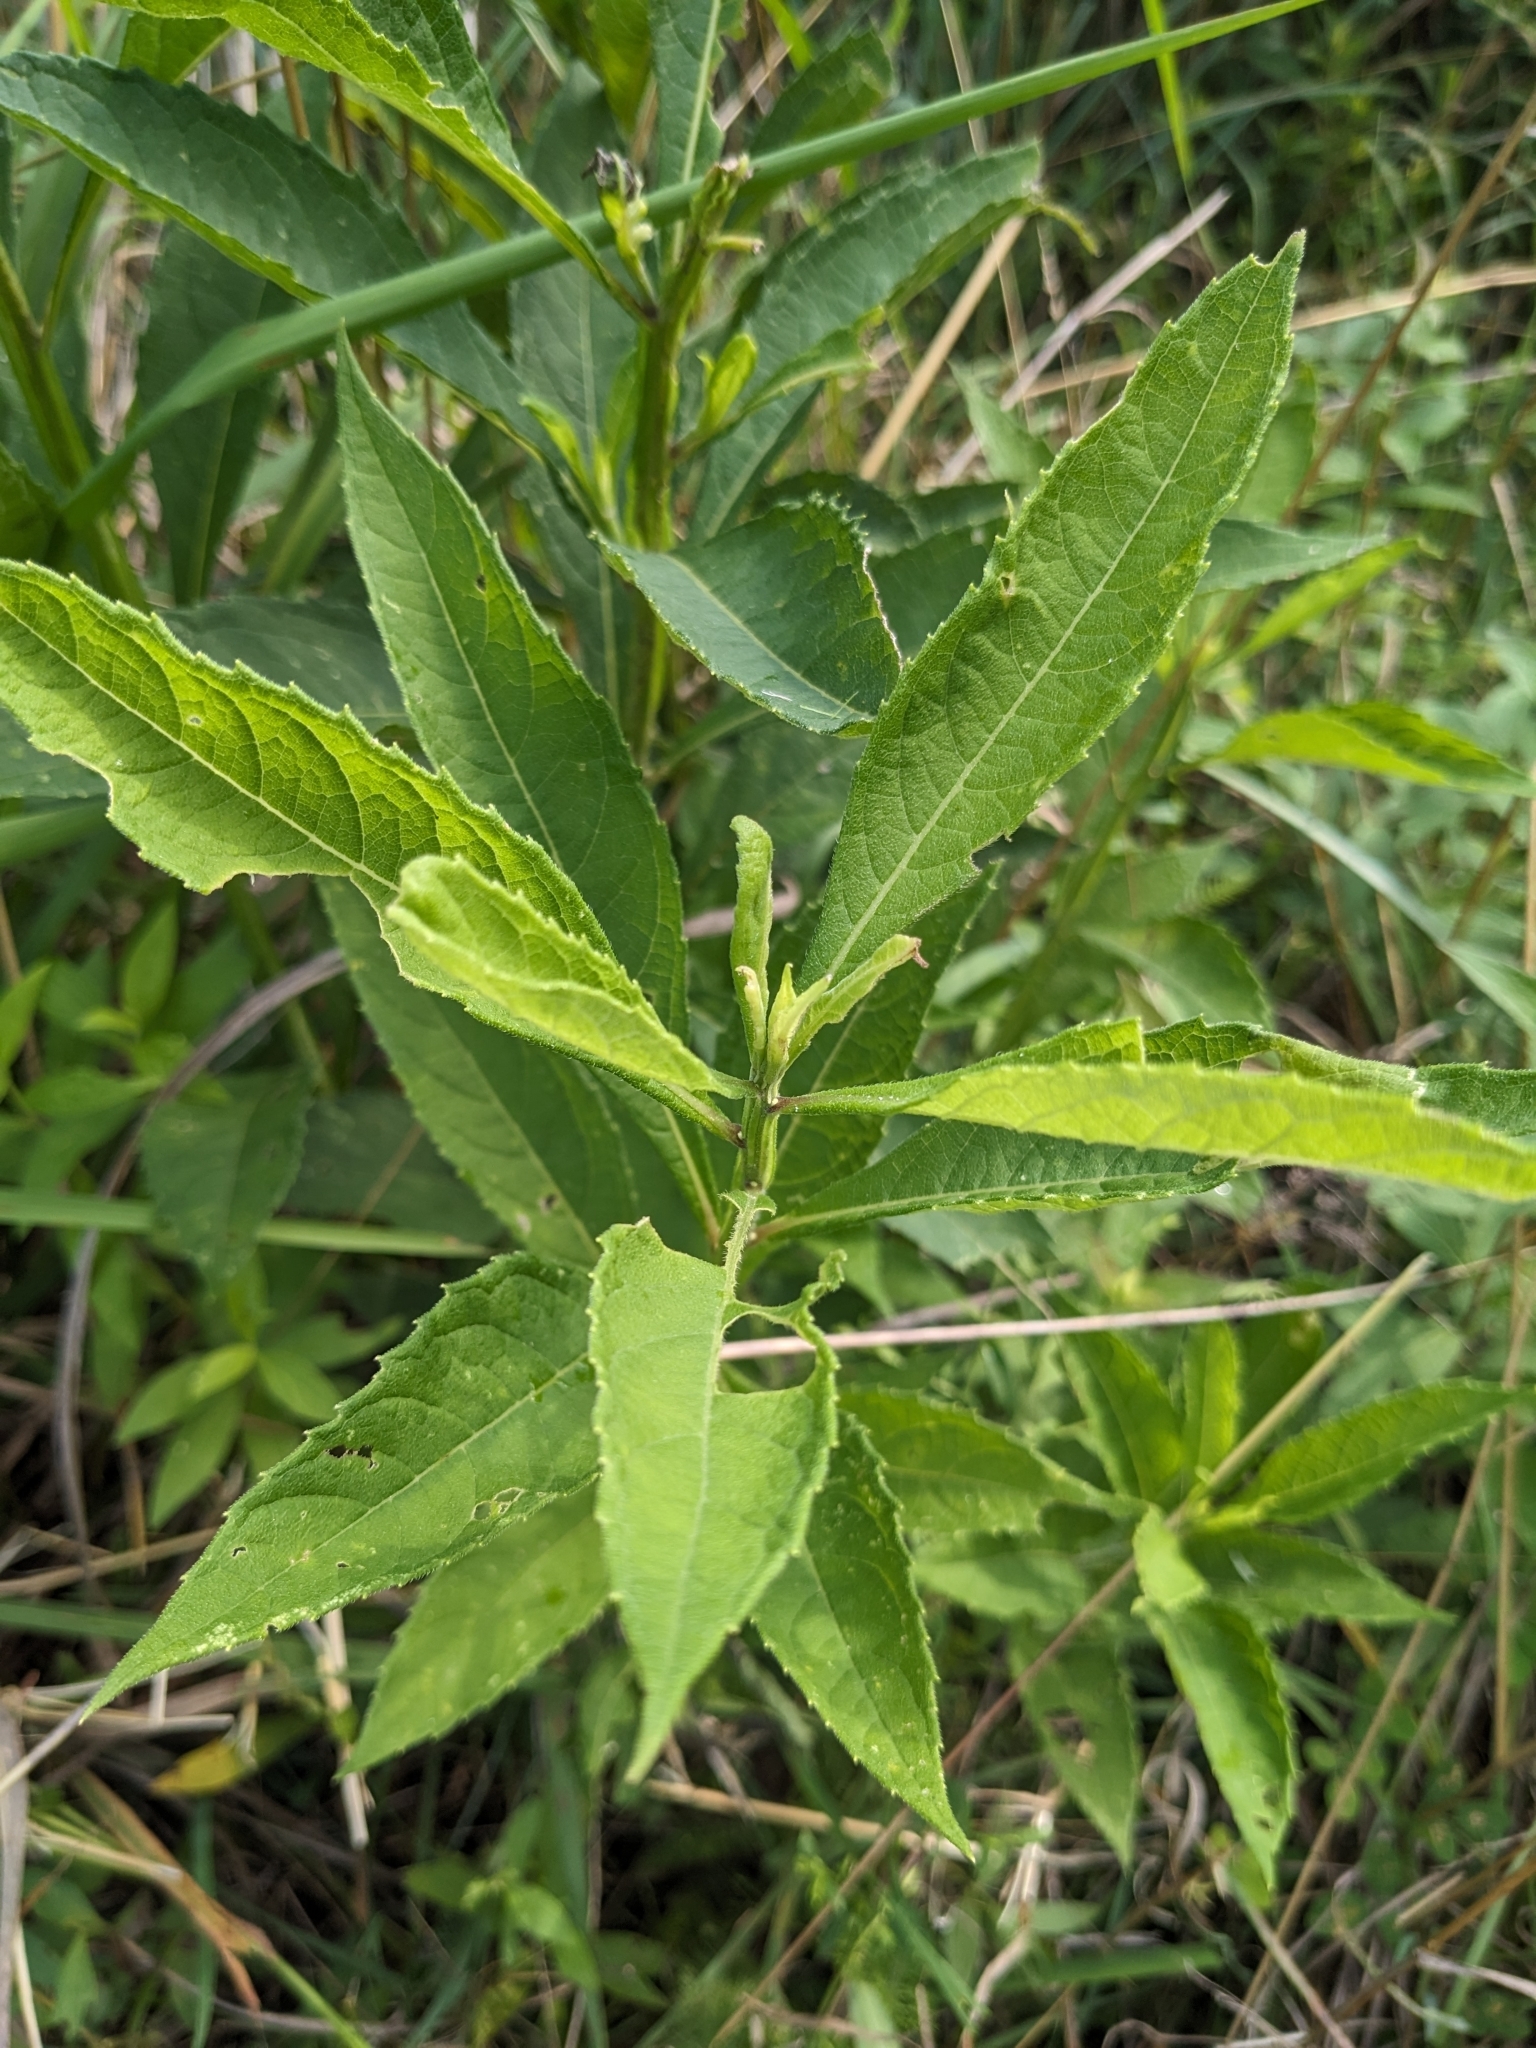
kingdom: Plantae
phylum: Tracheophyta
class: Magnoliopsida
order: Asterales
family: Asteraceae
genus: Verbesina
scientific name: Verbesina alternifolia
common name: Wingstem
